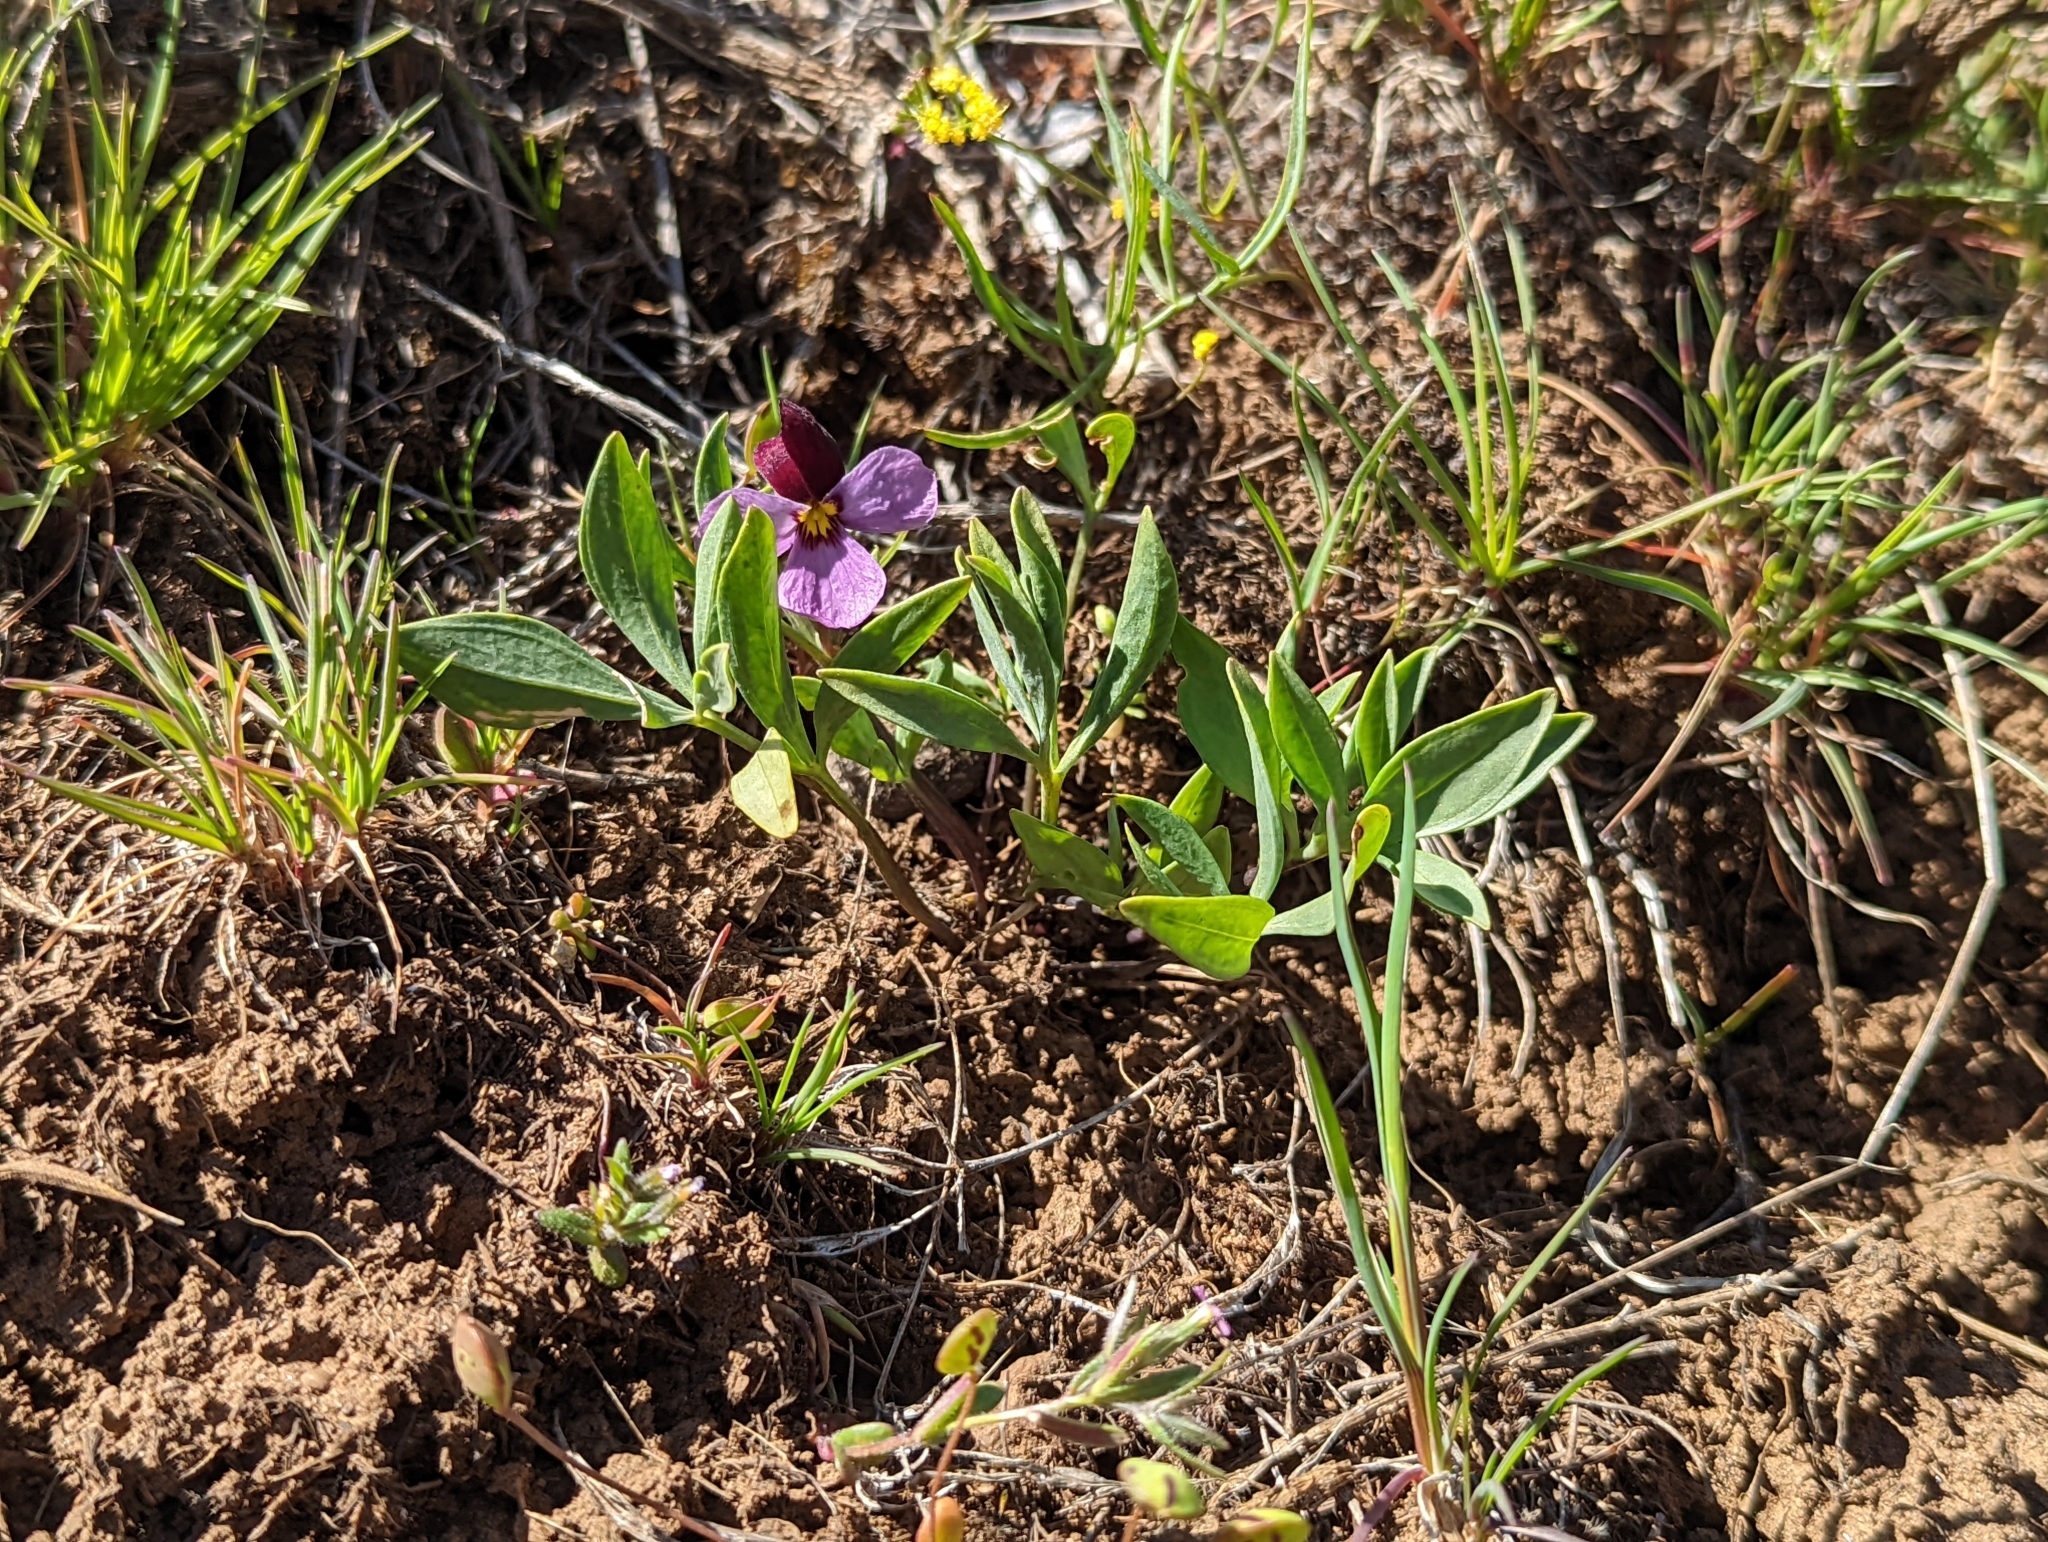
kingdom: Plantae
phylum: Tracheophyta
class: Magnoliopsida
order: Malpighiales
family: Violaceae
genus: Viola
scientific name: Viola trinervata
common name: Sagebrush violet
